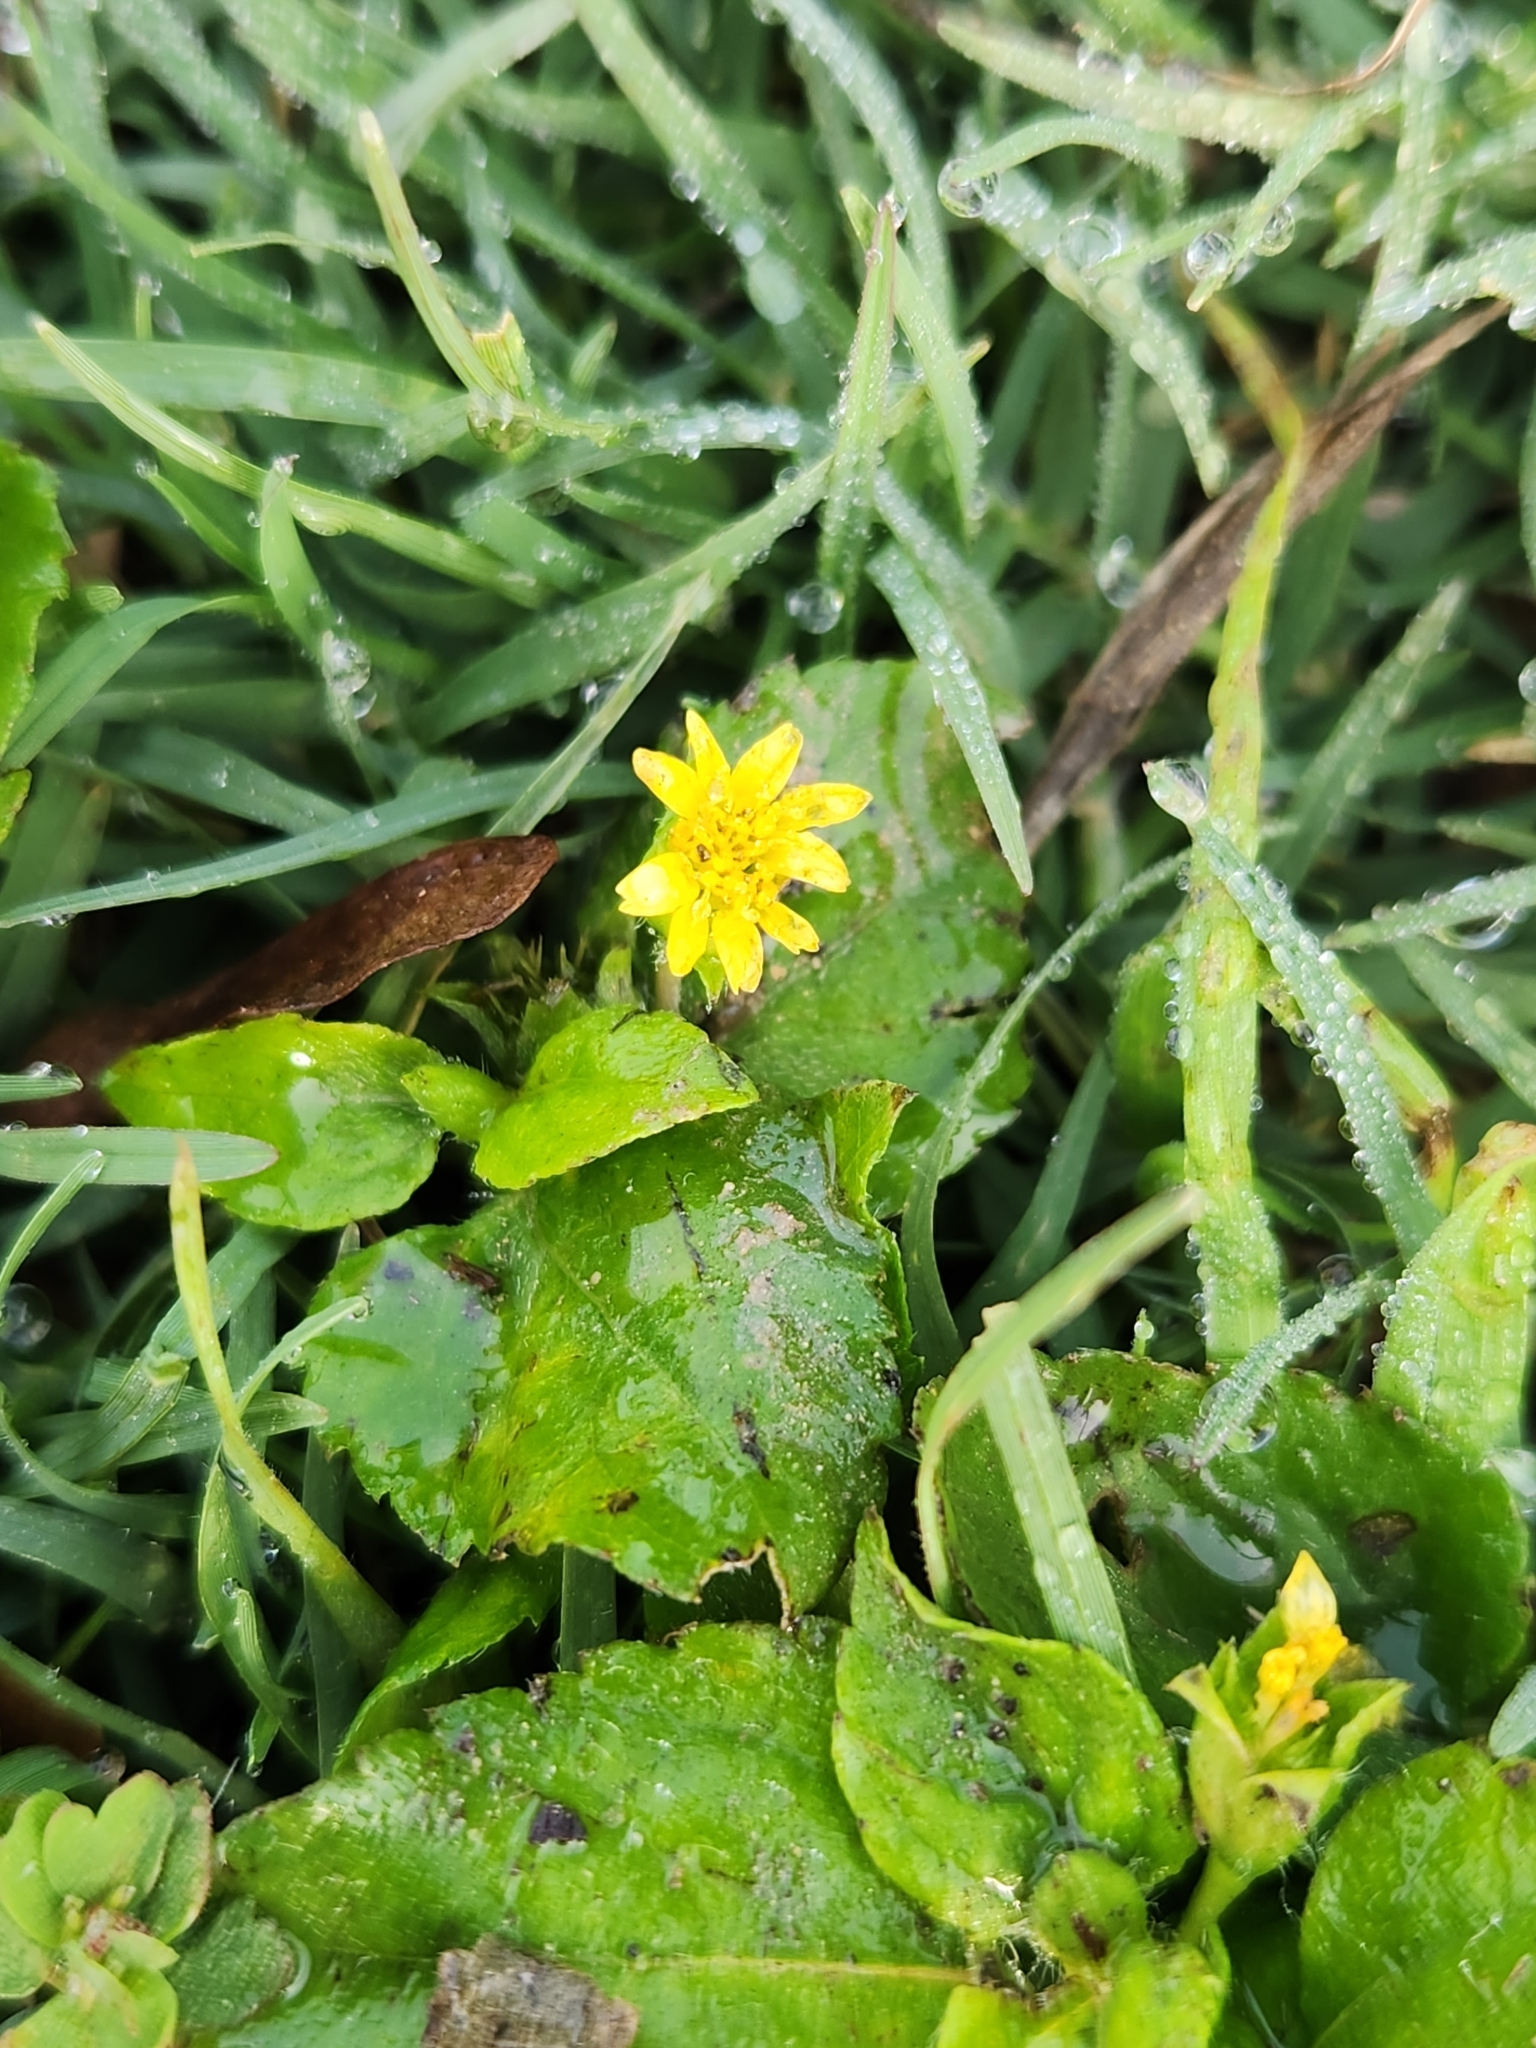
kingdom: Plantae
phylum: Tracheophyta
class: Magnoliopsida
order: Asterales
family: Asteraceae
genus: Calyptocarpus
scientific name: Calyptocarpus vialis
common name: Straggler daisy
